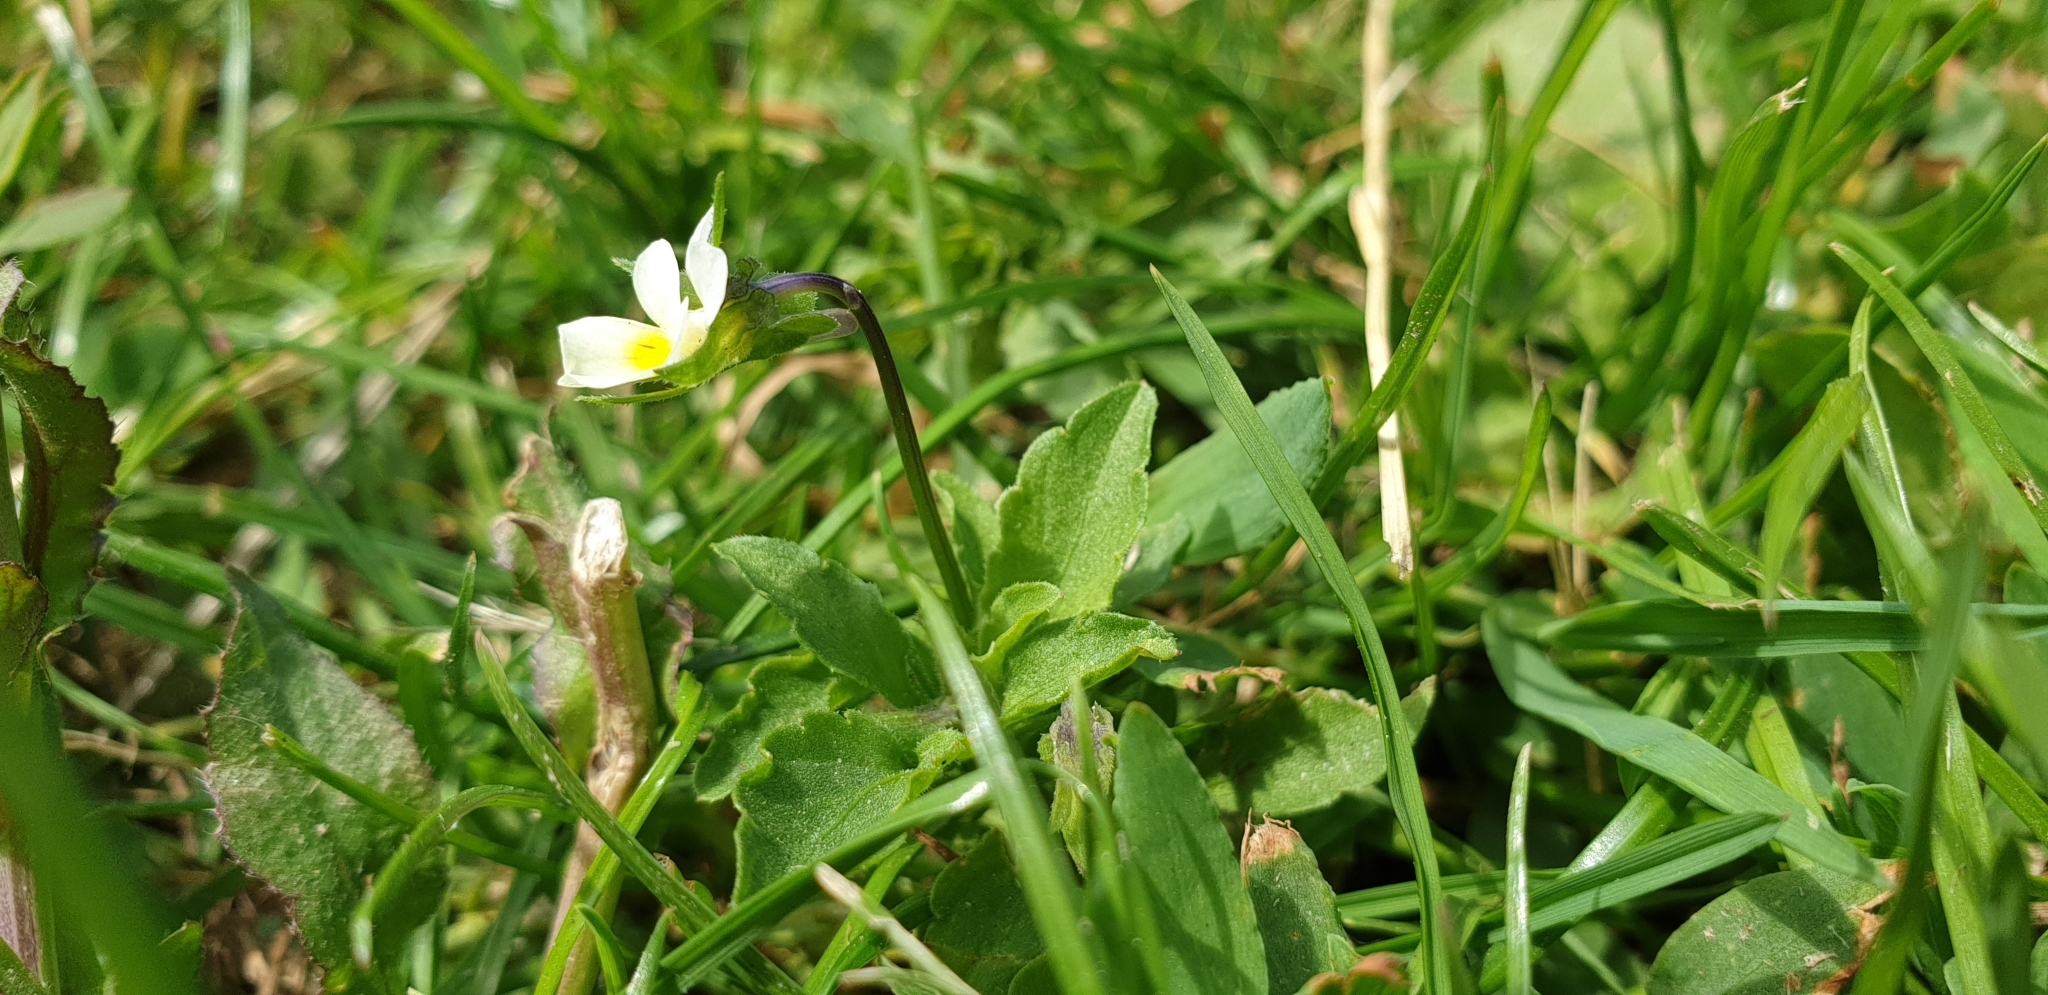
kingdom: Plantae
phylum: Tracheophyta
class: Magnoliopsida
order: Malpighiales
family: Violaceae
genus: Viola
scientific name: Viola arvensis
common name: Field pansy
